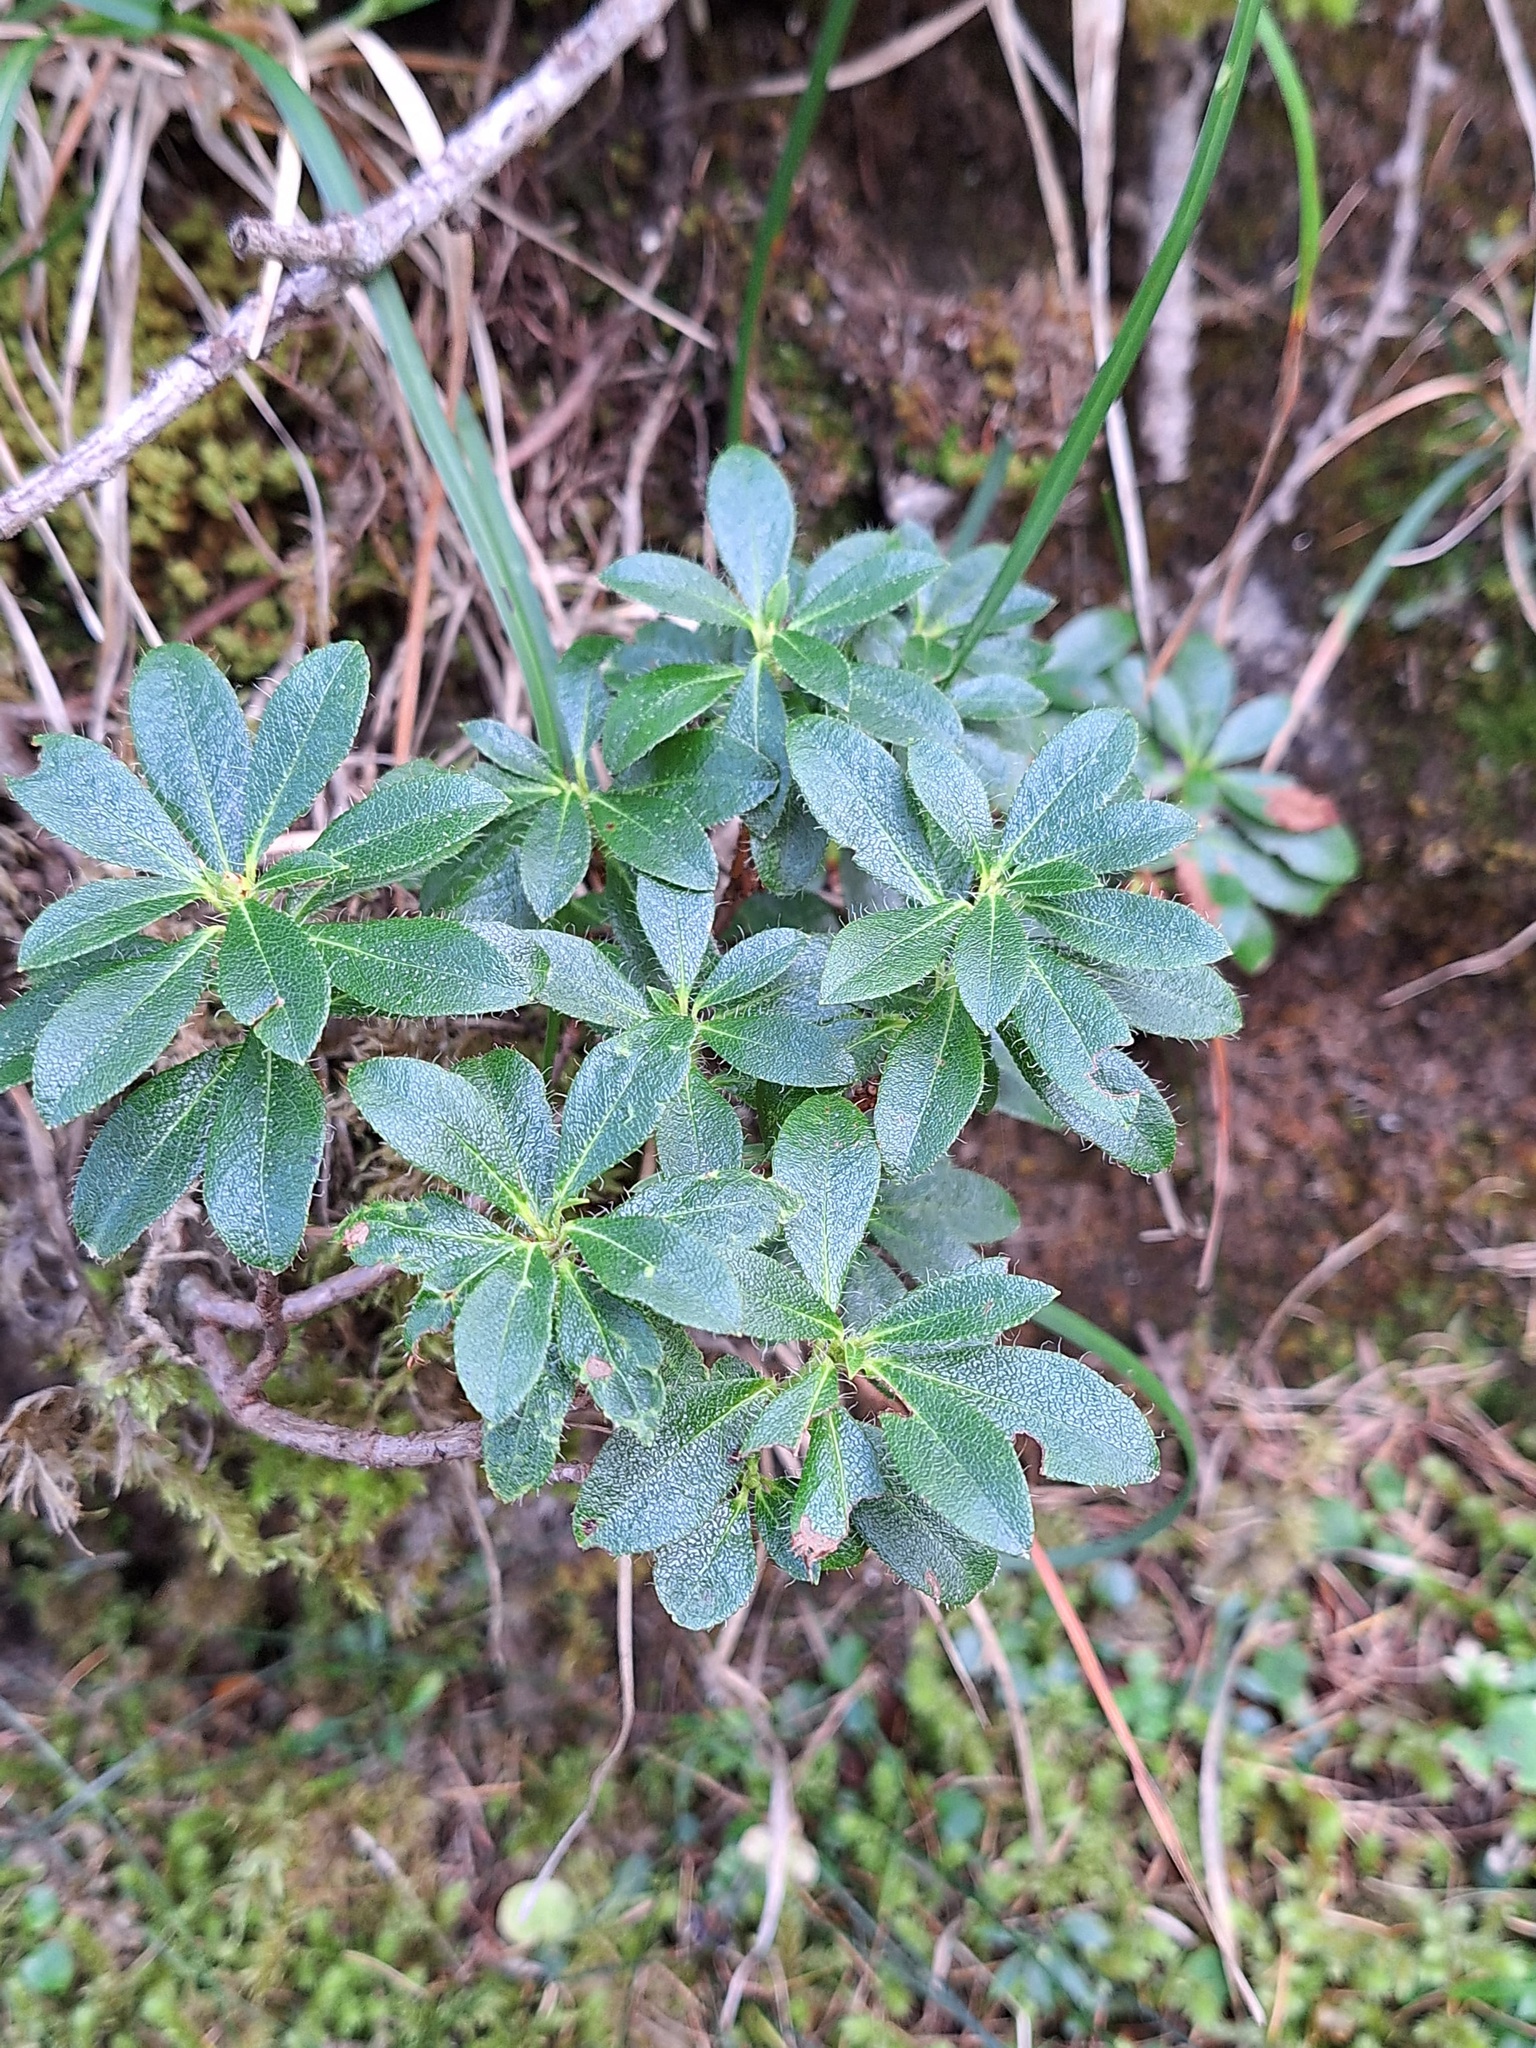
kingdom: Plantae
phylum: Tracheophyta
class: Magnoliopsida
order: Ericales
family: Ericaceae
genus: Rhododendron
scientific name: Rhododendron hirsutum
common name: Hairy alpenrose
